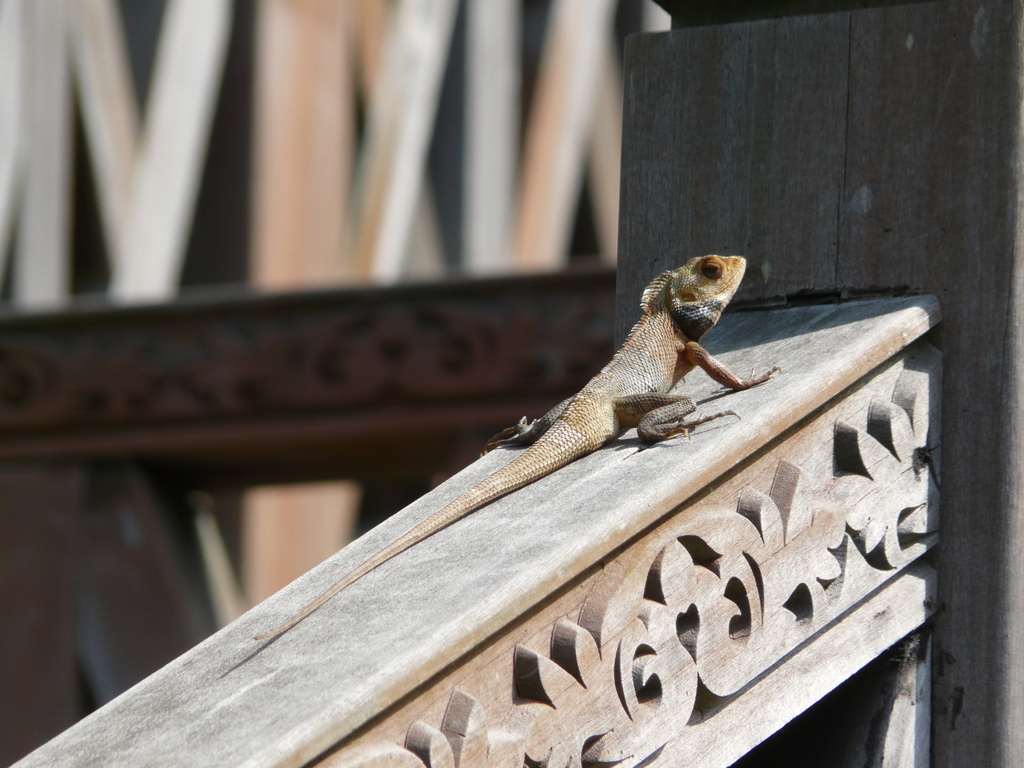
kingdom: Animalia
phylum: Chordata
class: Squamata
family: Agamidae
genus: Calotes
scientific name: Calotes versicolor
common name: Oriental garden lizard
